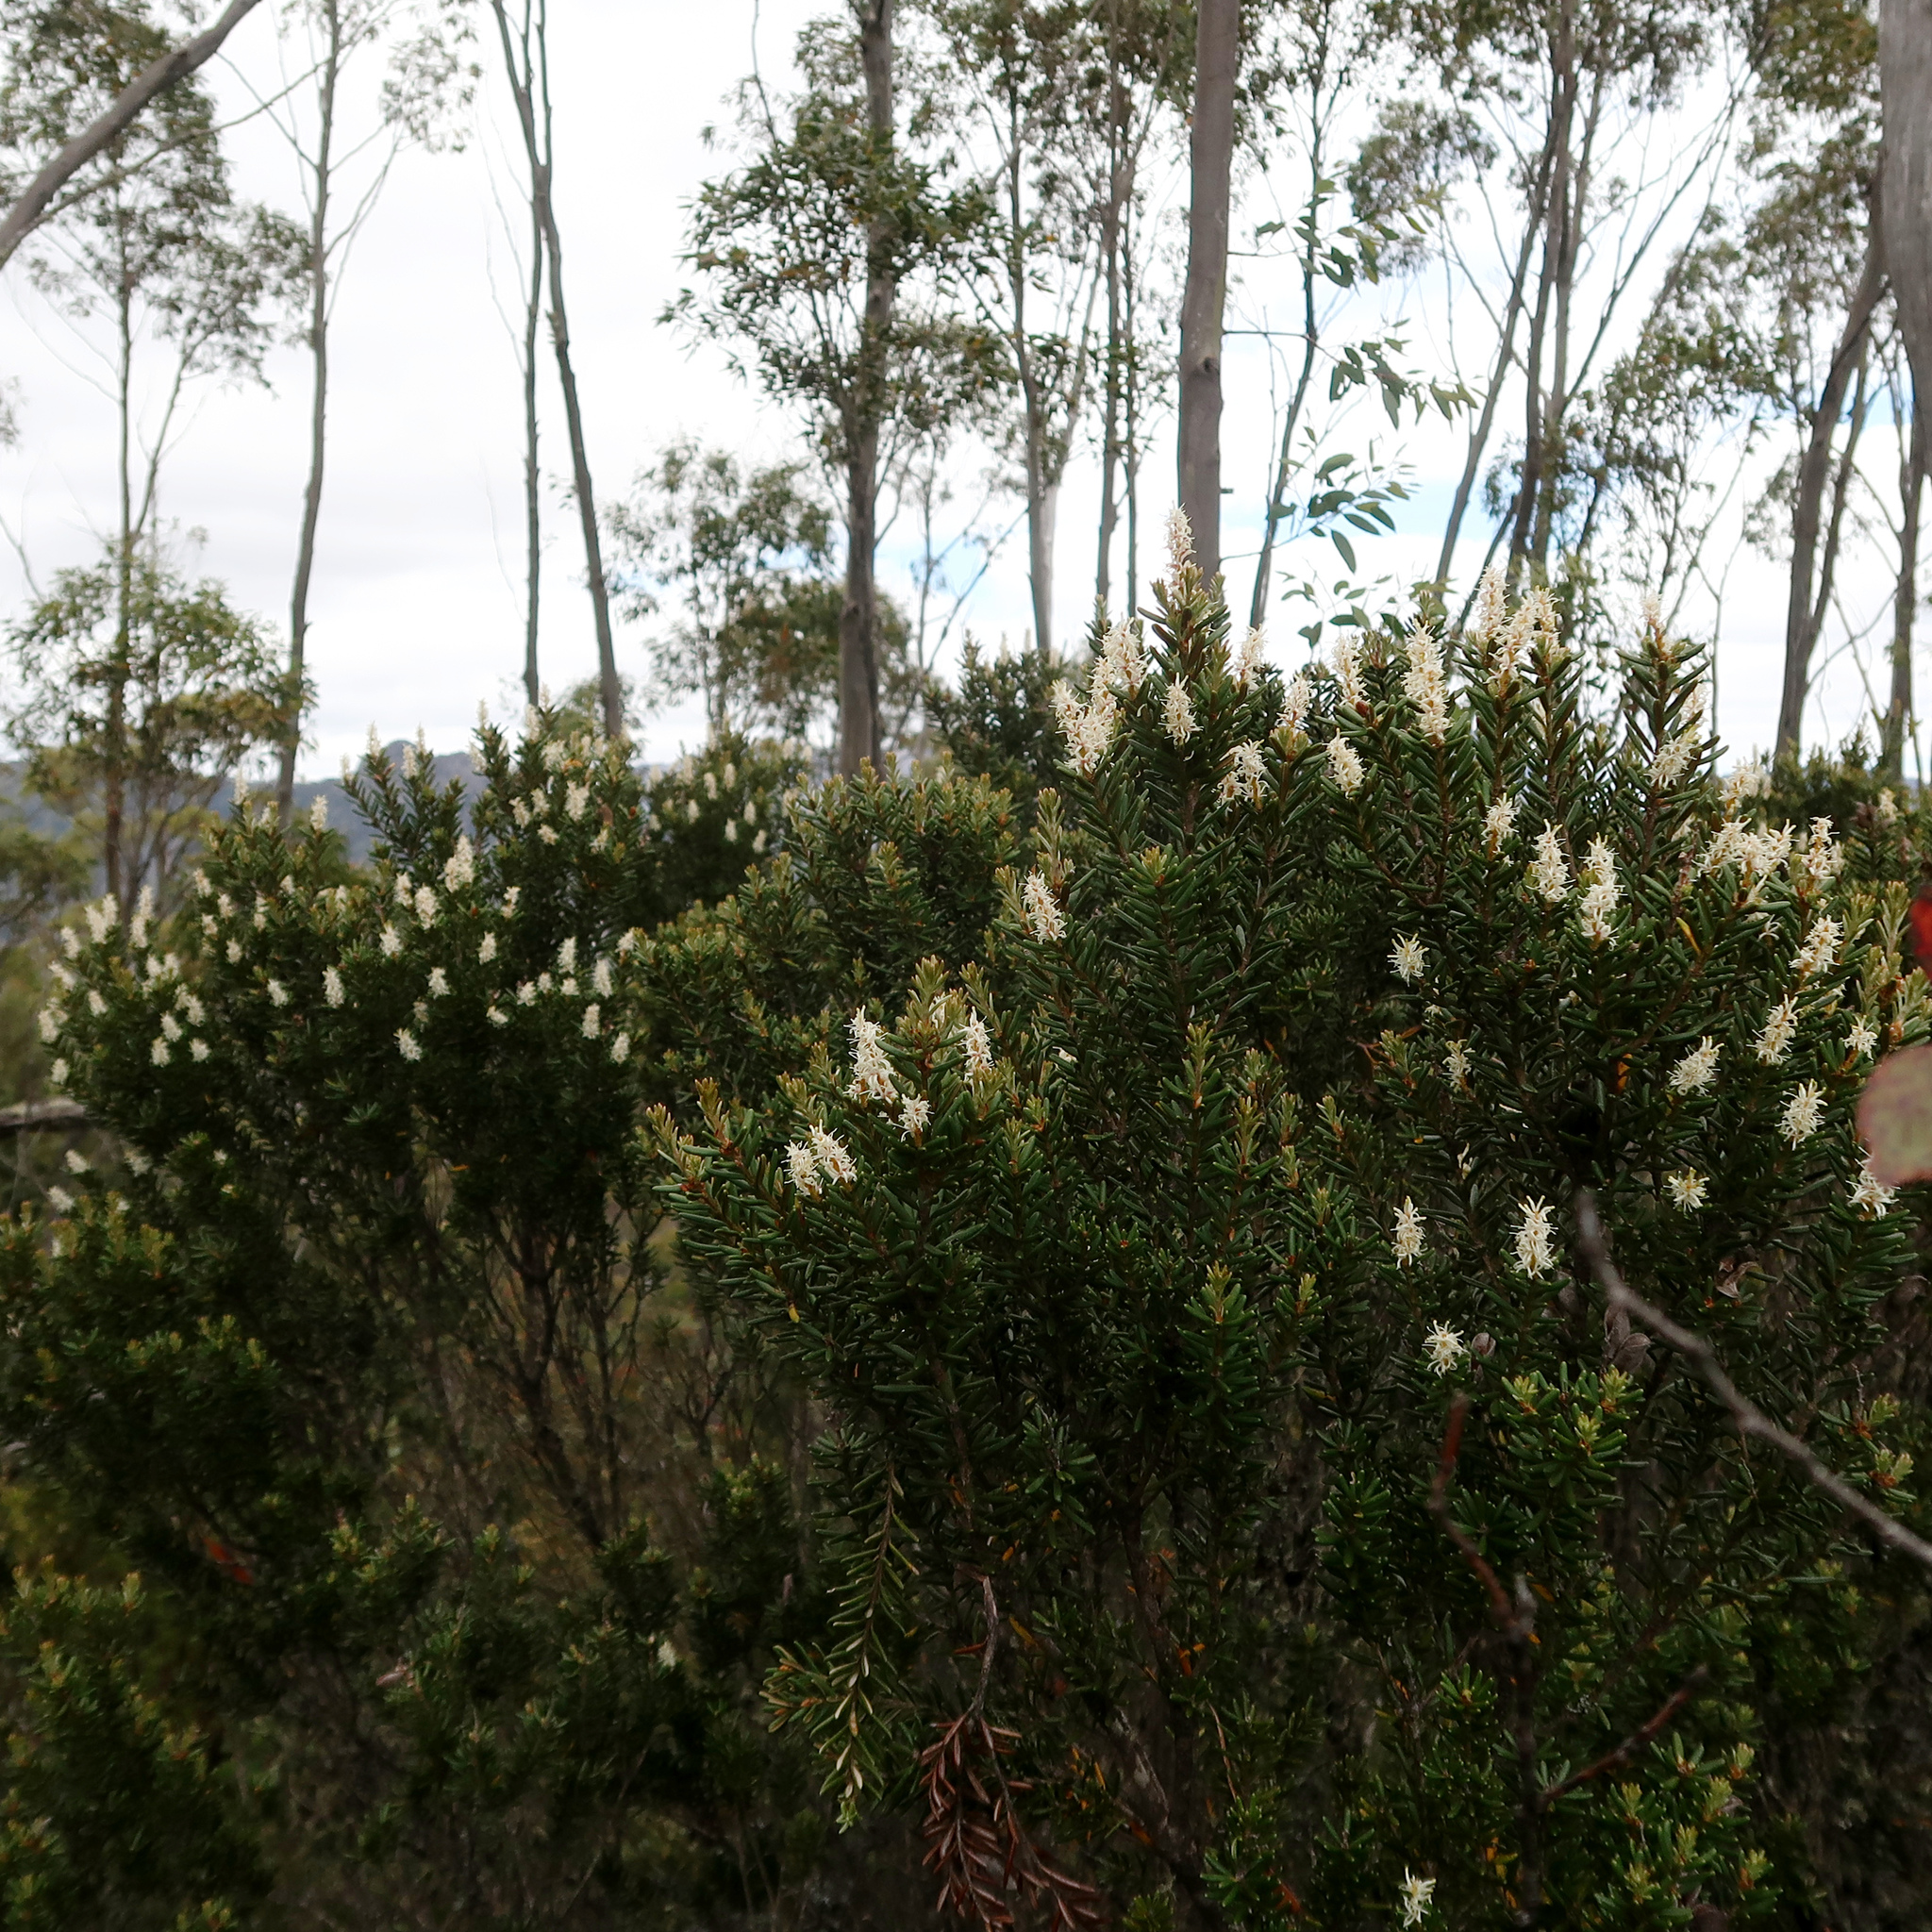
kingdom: Plantae
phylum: Tracheophyta
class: Magnoliopsida
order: Proteales
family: Proteaceae
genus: Orites
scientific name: Orites revolutus
